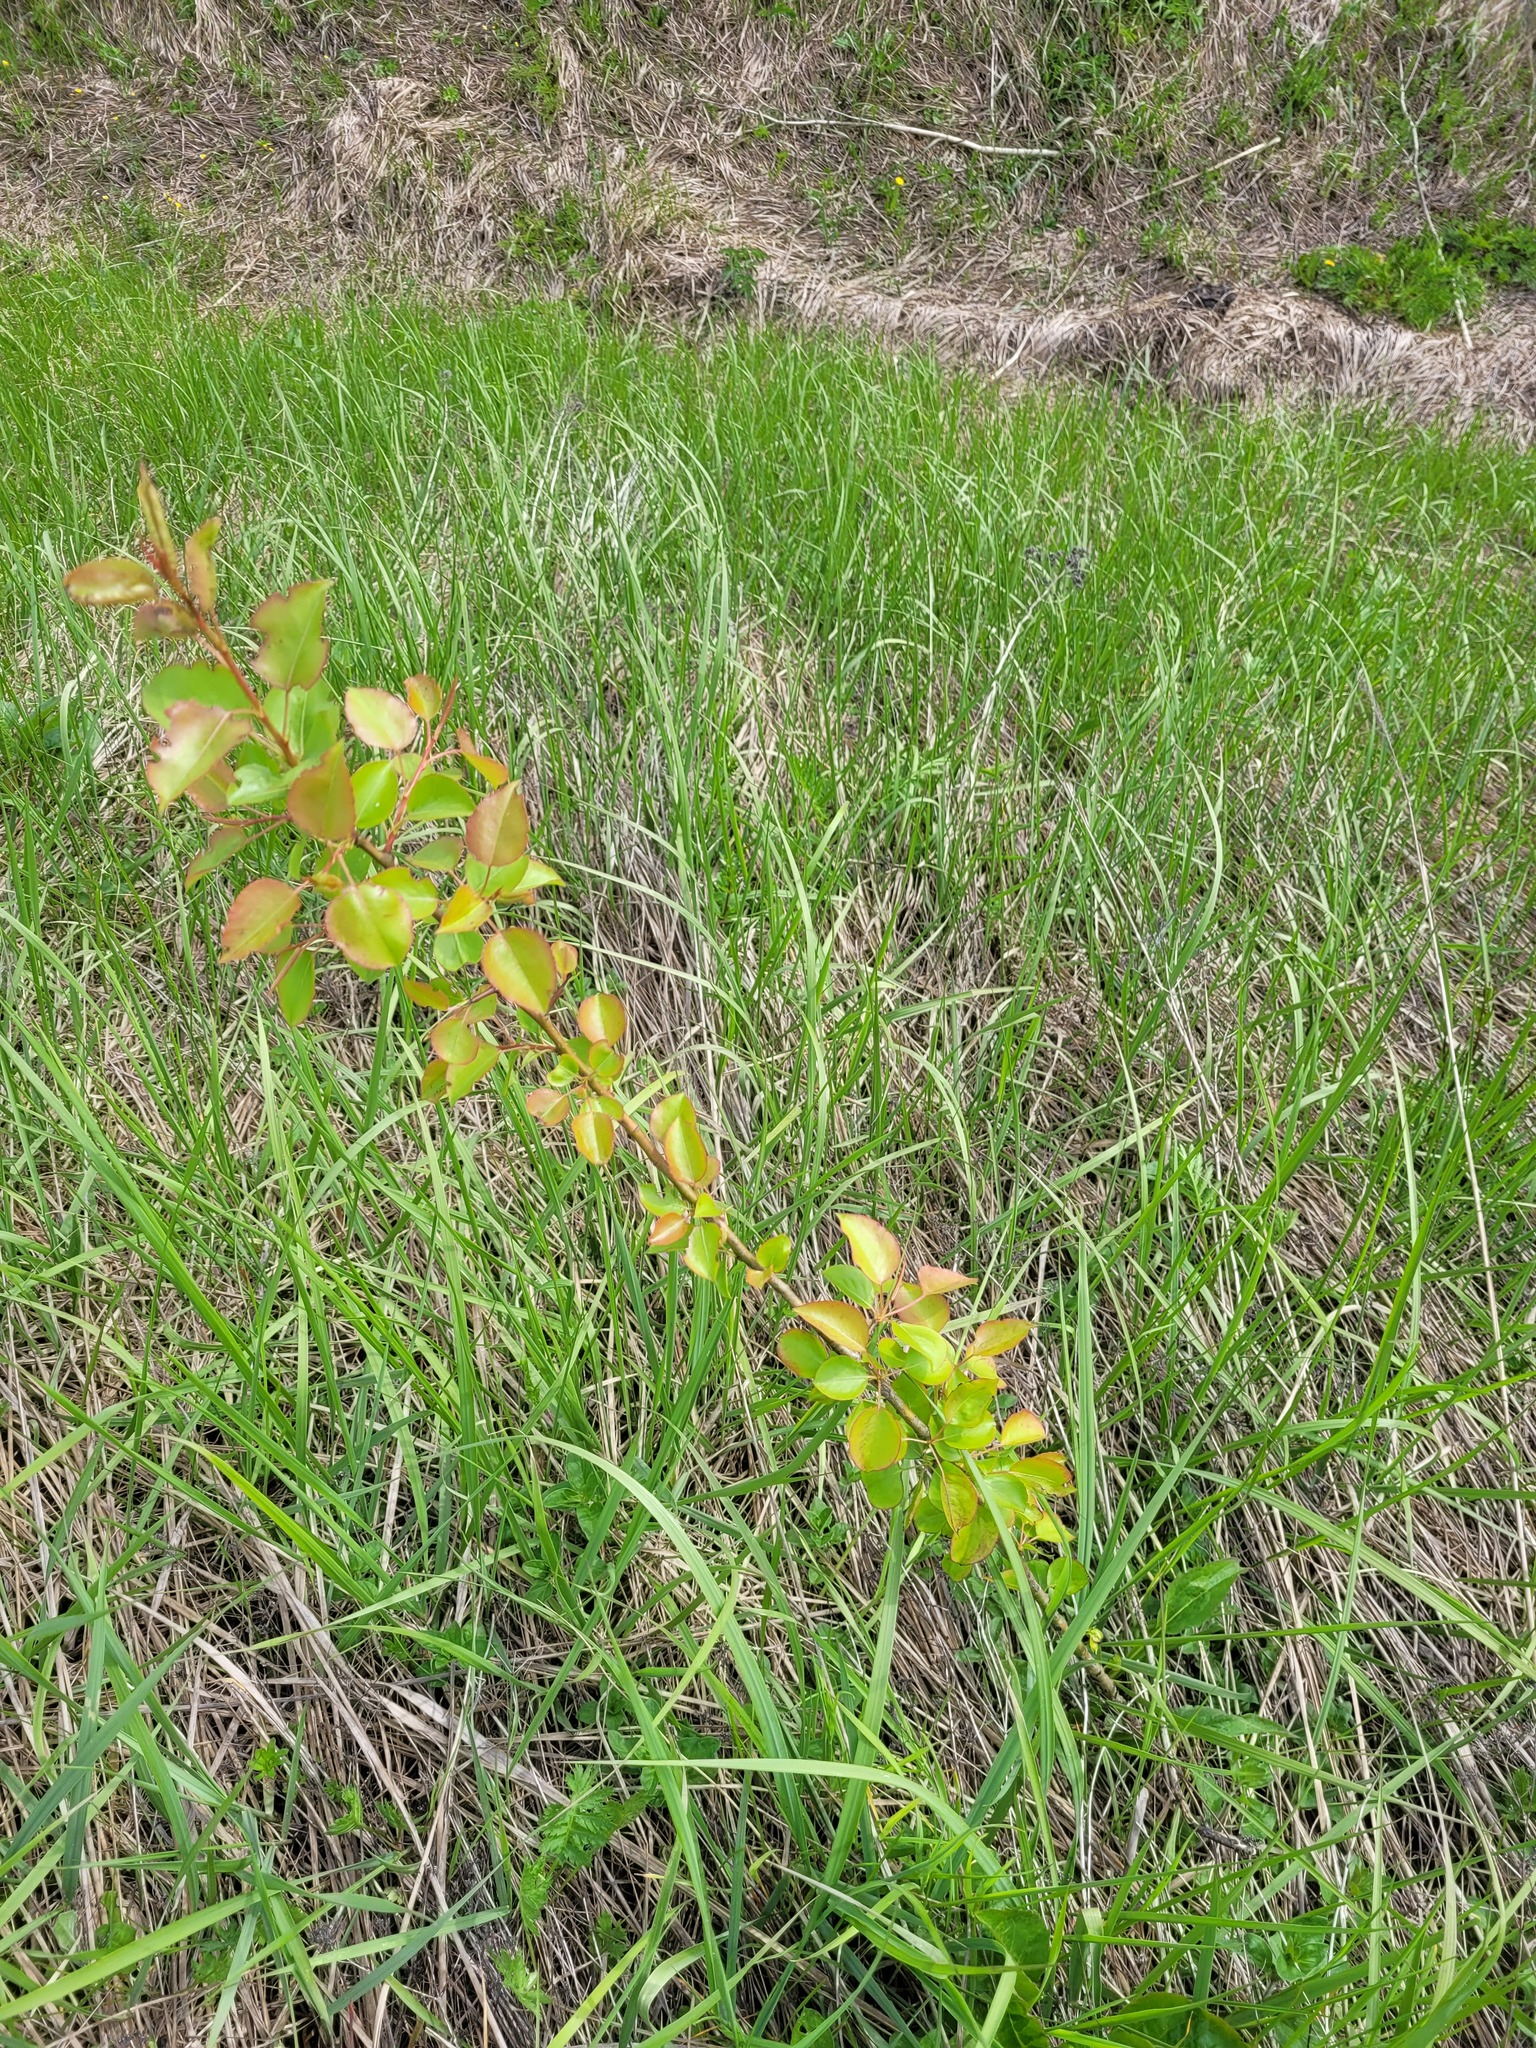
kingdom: Plantae
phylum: Tracheophyta
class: Magnoliopsida
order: Rosales
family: Rosaceae
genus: Pyrus
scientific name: Pyrus communis
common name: Pear
